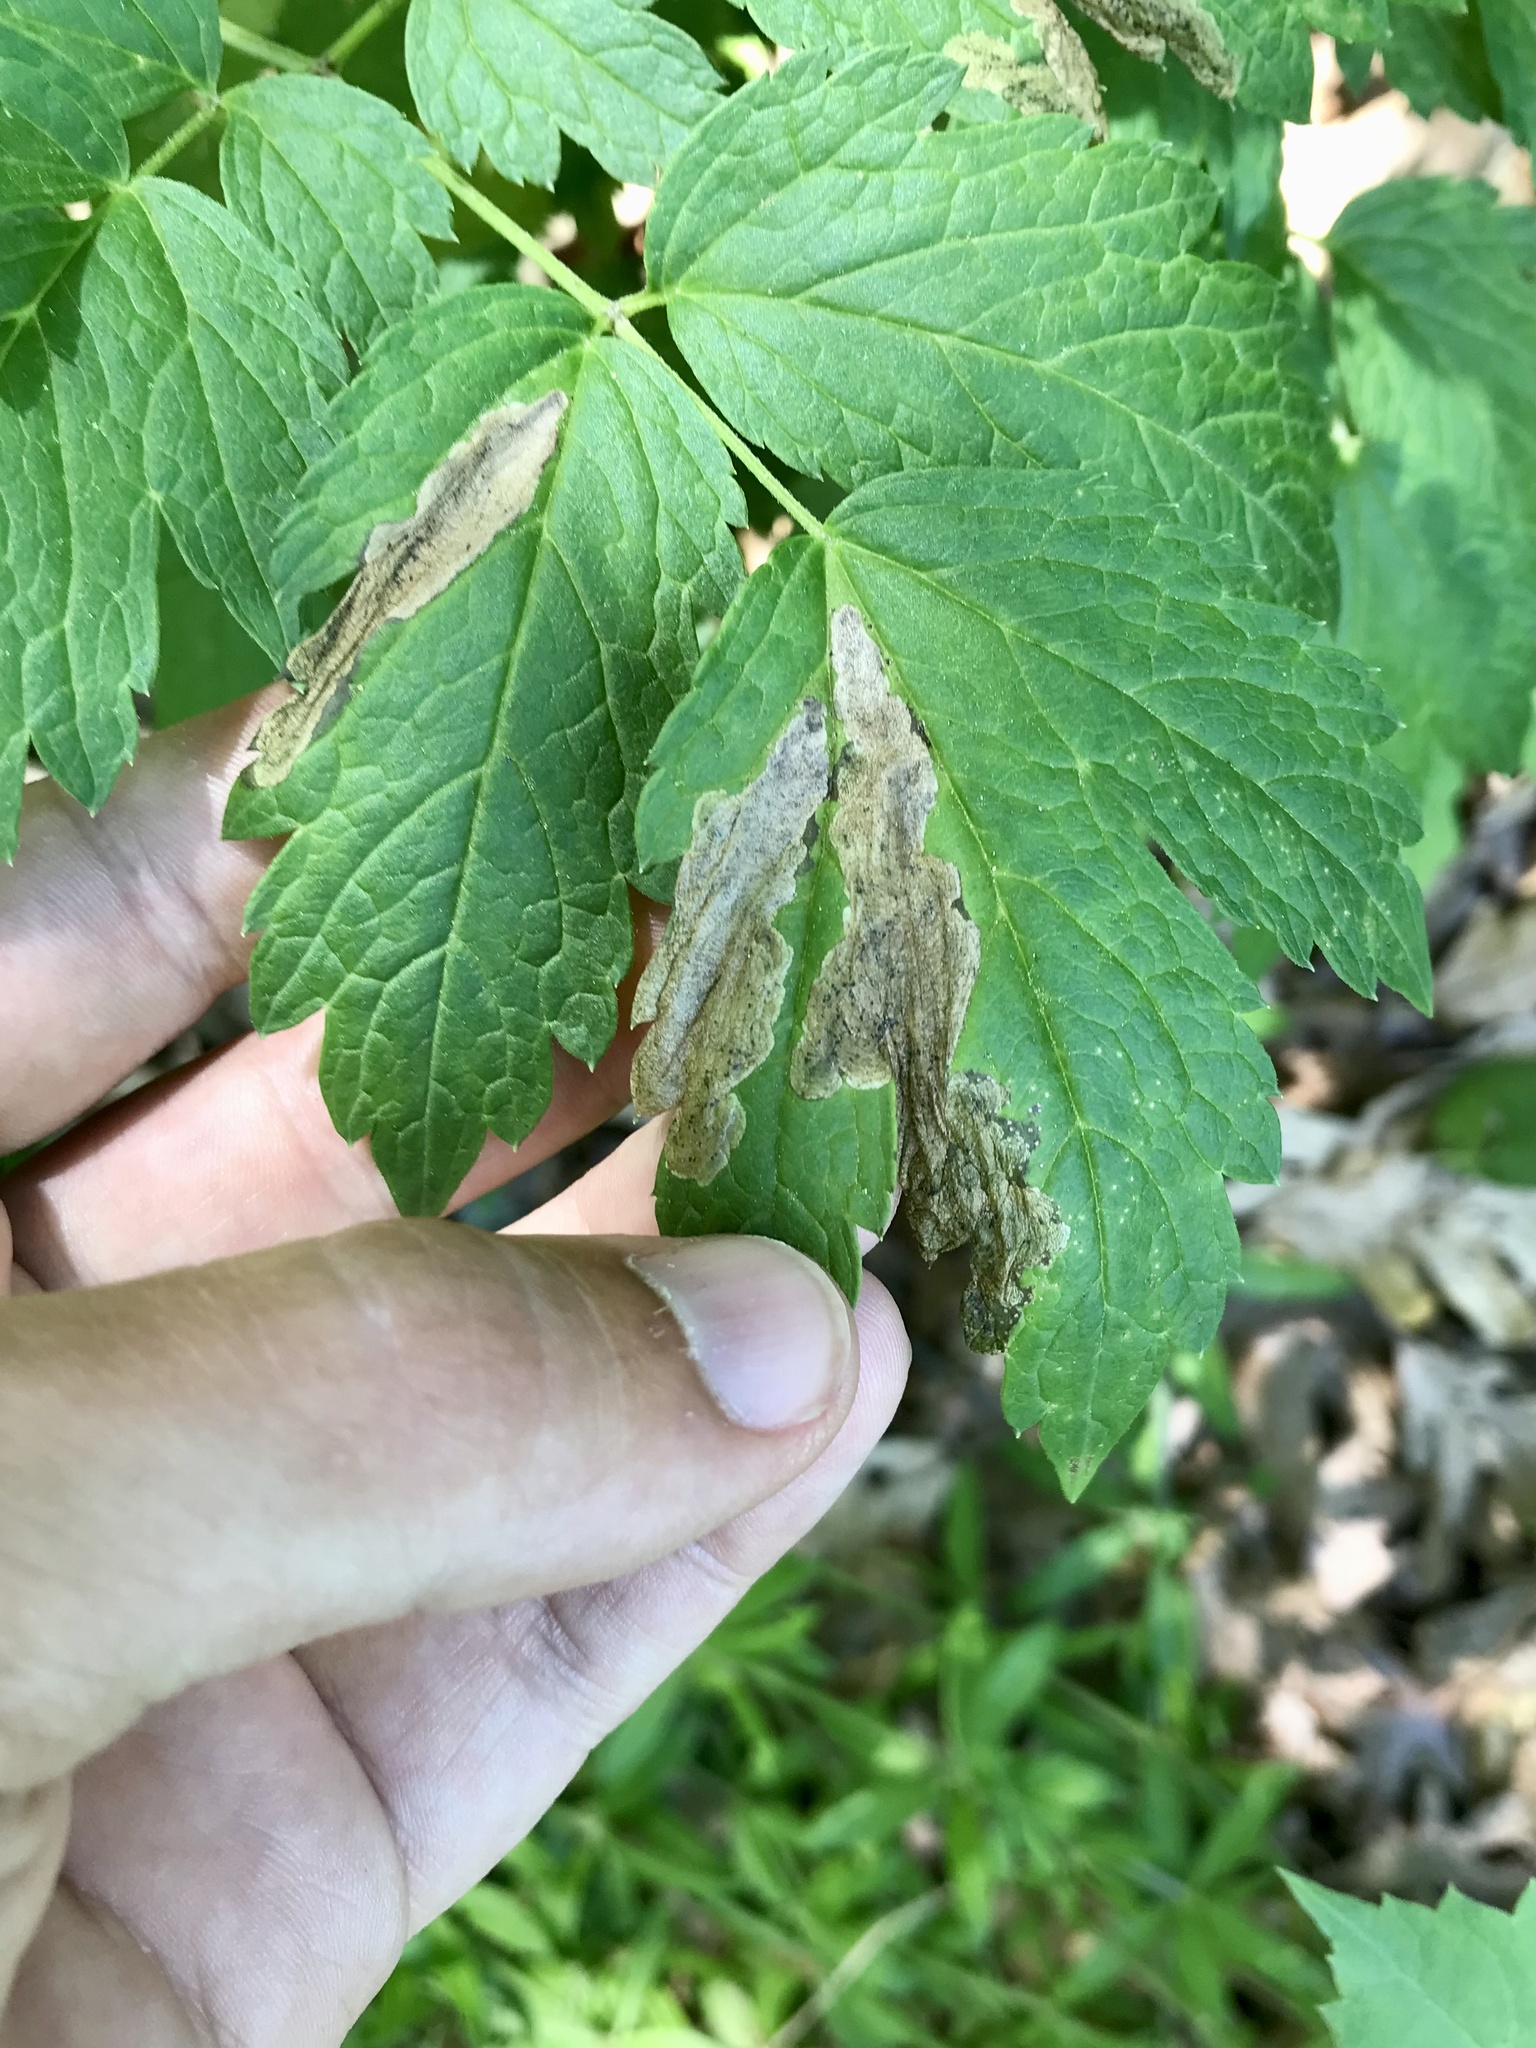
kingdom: Animalia
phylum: Arthropoda
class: Insecta
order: Diptera
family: Agromyzidae
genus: Phytomyza
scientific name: Phytomyza
